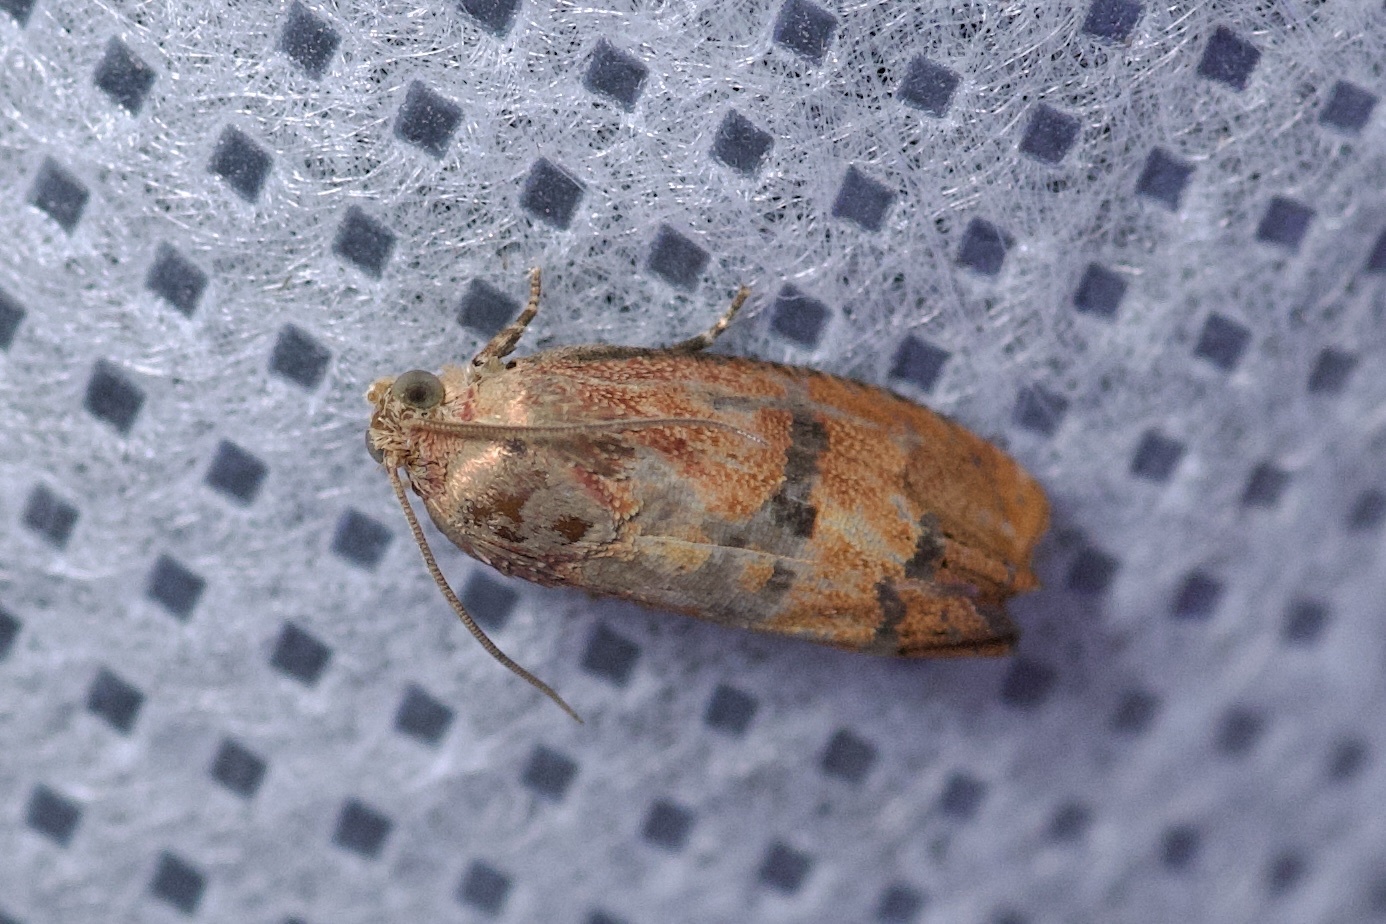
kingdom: Animalia
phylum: Arthropoda
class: Insecta
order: Lepidoptera
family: Tortricidae
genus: Cydia
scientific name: Cydia latiferreana
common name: Filbertworm moth
